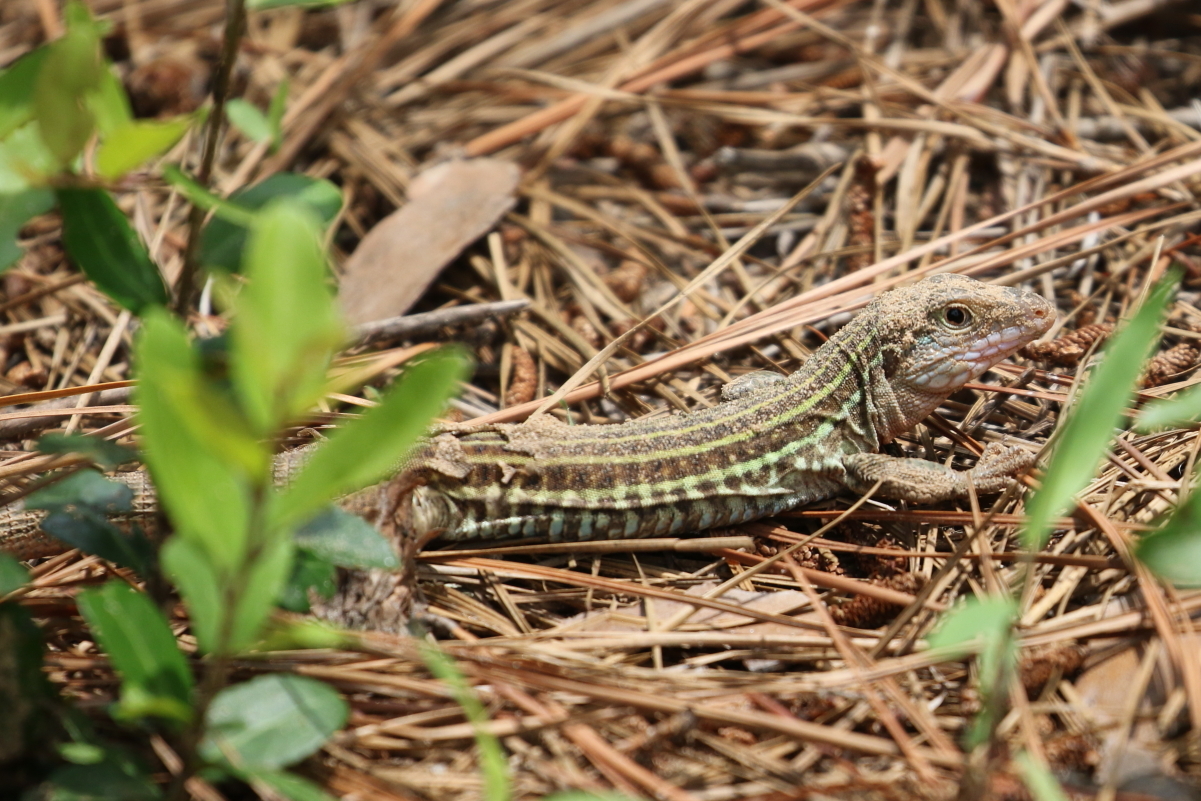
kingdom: Animalia
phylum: Chordata
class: Squamata
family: Teiidae
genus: Aspidoscelis
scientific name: Aspidoscelis gularis
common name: Eastern spotted whiptail
